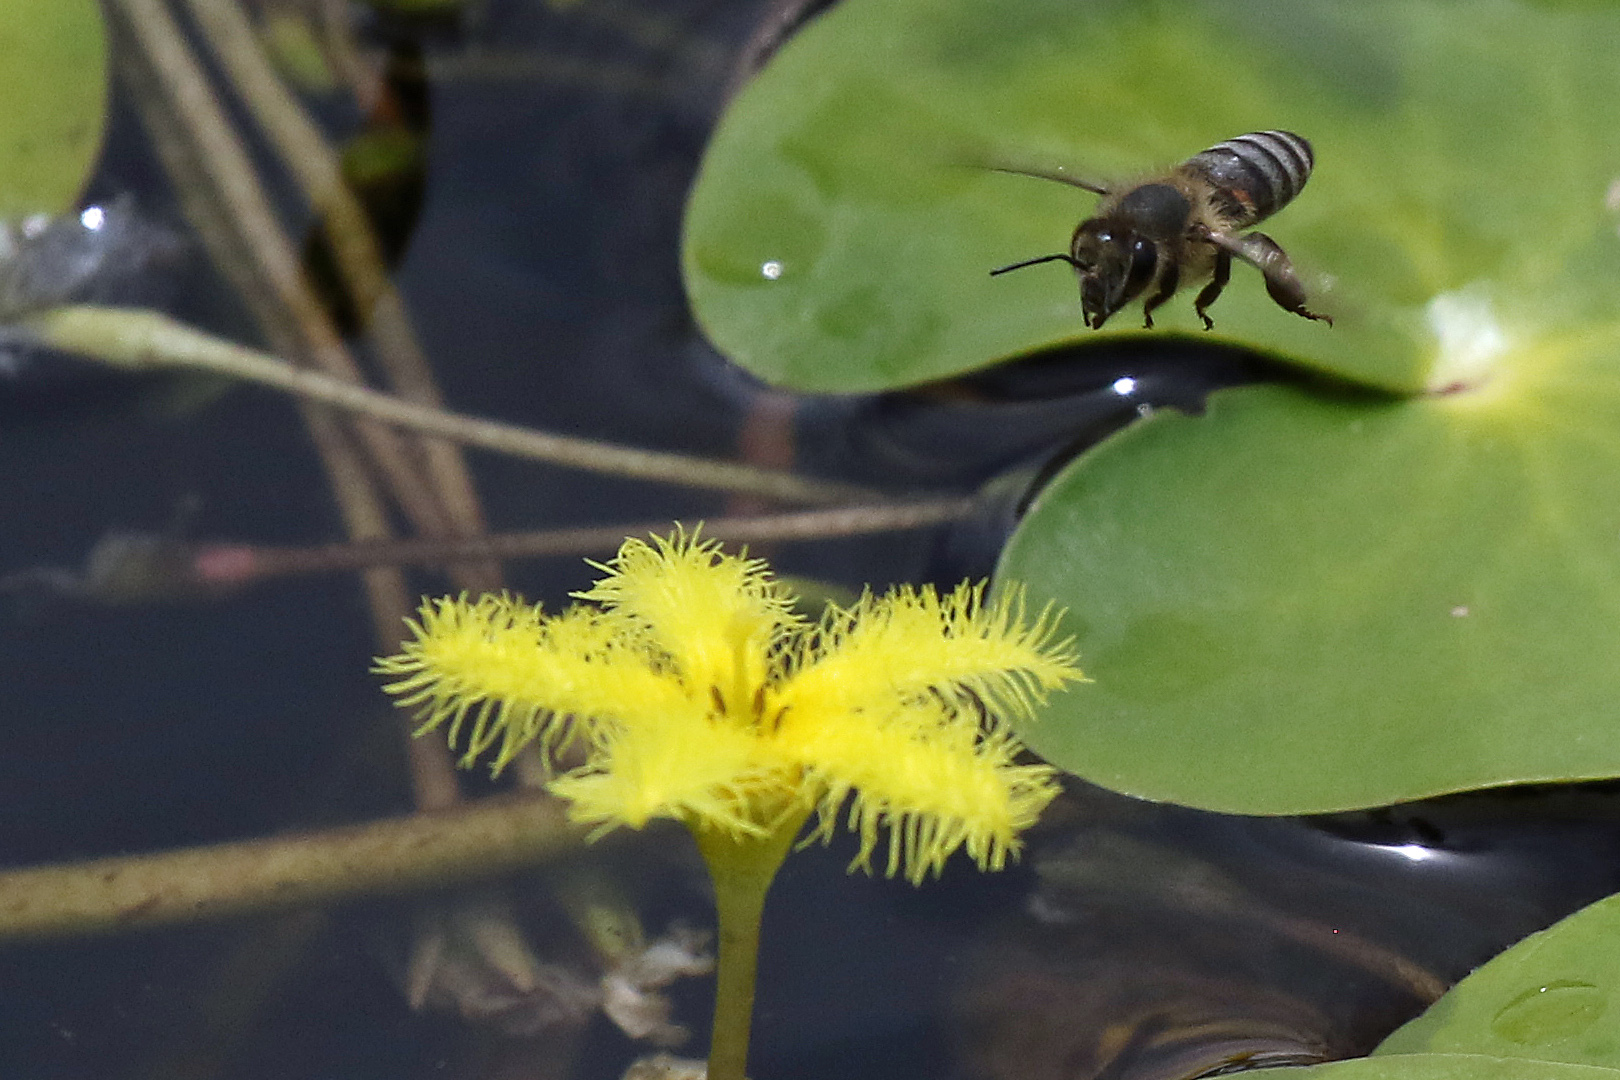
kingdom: Animalia
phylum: Arthropoda
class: Insecta
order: Hymenoptera
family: Apidae
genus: Apis
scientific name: Apis mellifera
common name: Honey bee
